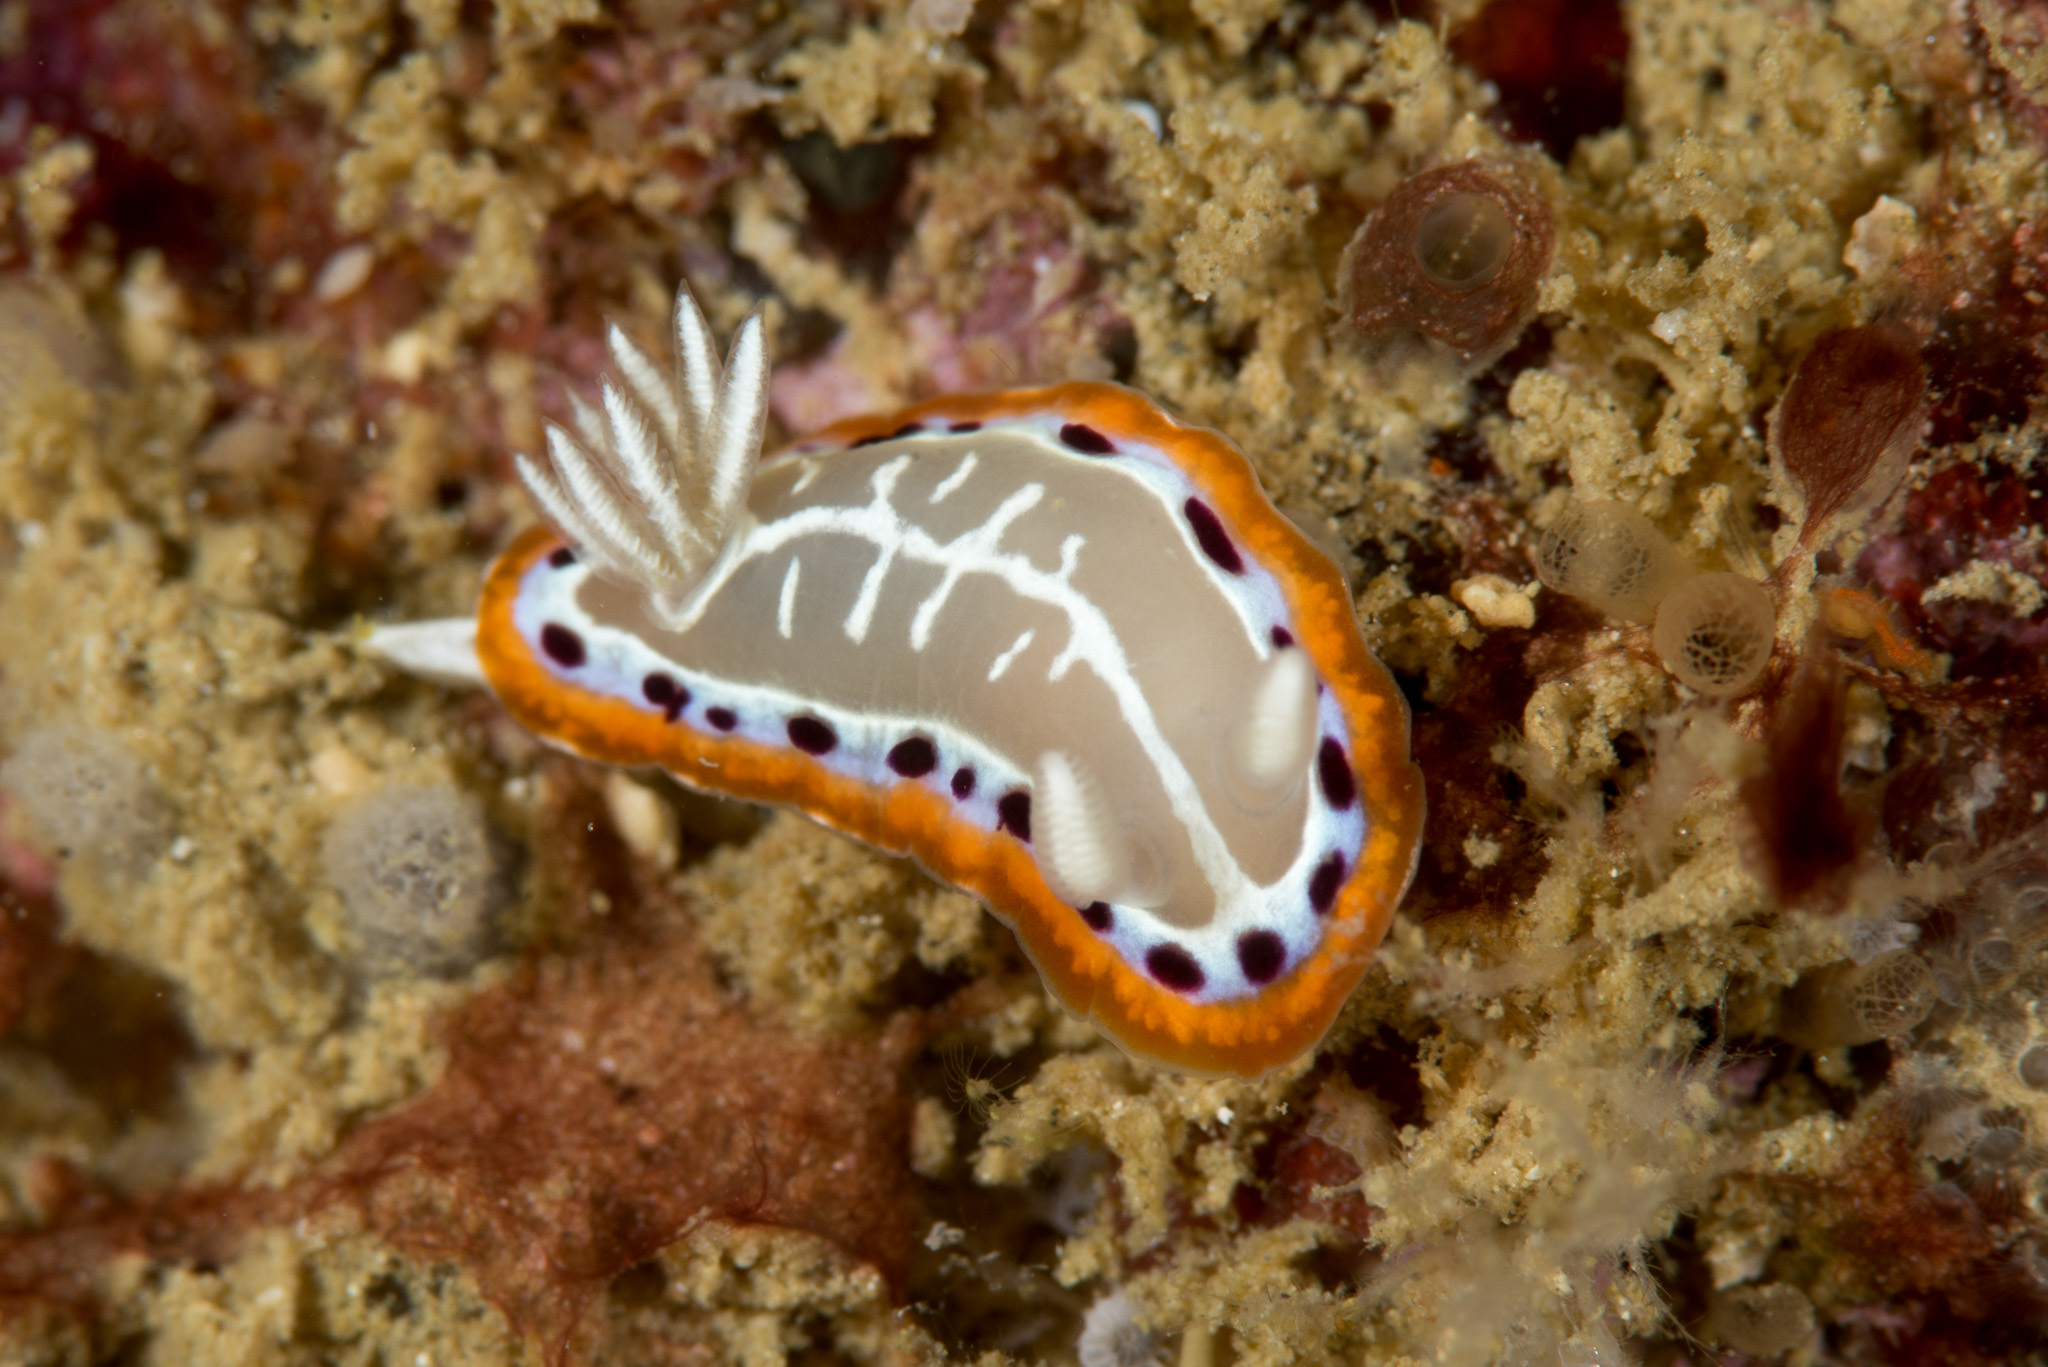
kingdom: Animalia
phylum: Mollusca
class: Gastropoda
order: Nudibranchia
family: Chromodorididae
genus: Goniobranchus
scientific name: Goniobranchus setoensis
